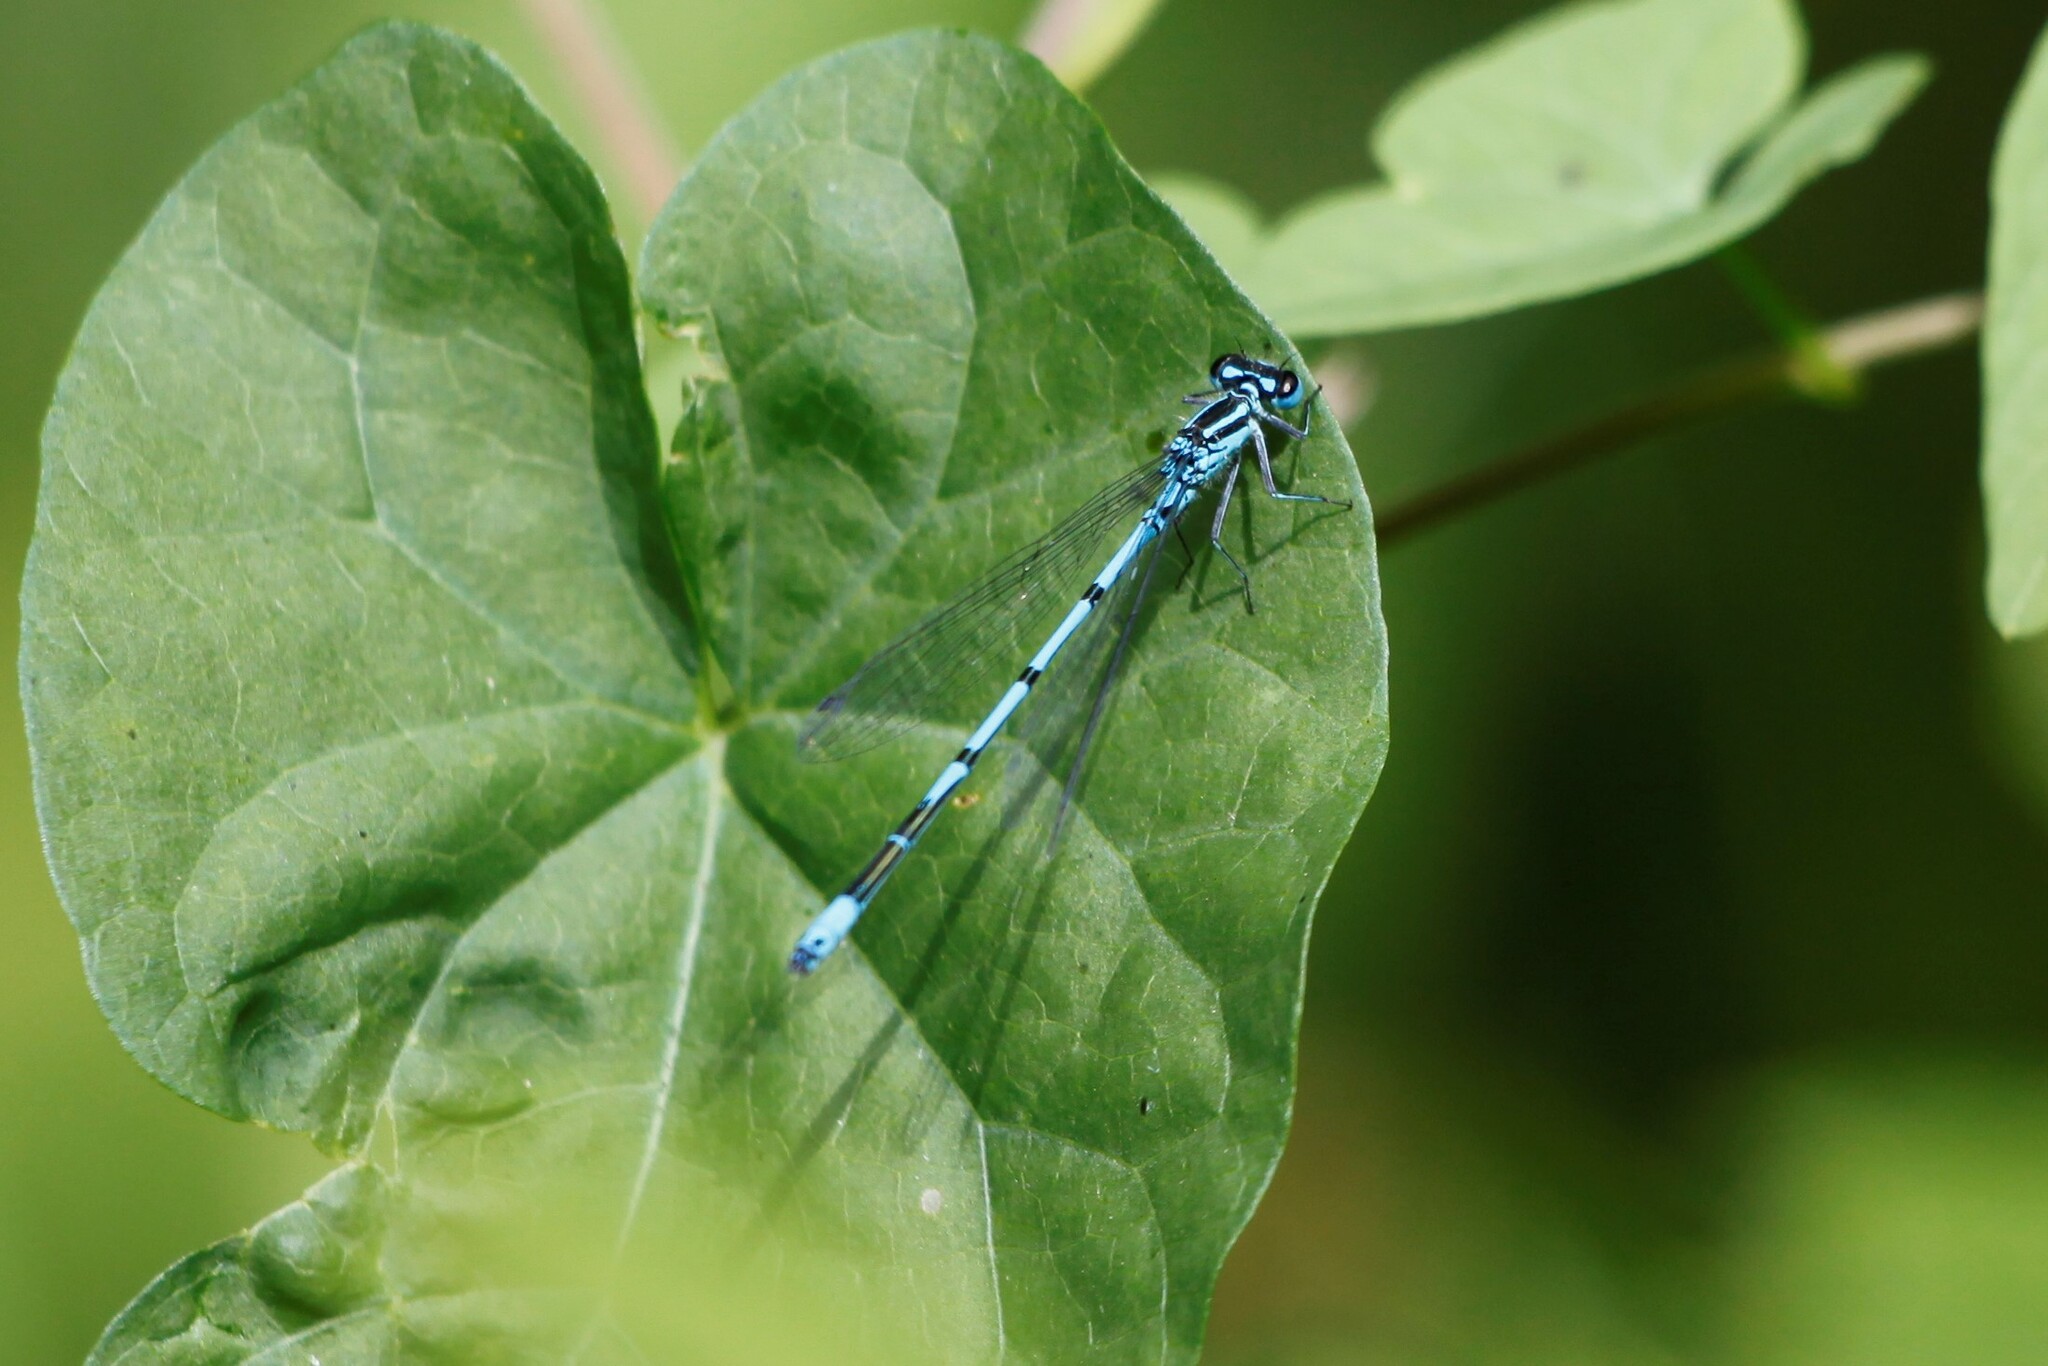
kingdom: Animalia
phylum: Arthropoda
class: Insecta
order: Odonata
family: Coenagrionidae
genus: Coenagrion
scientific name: Coenagrion puella
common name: Azure damselfly
